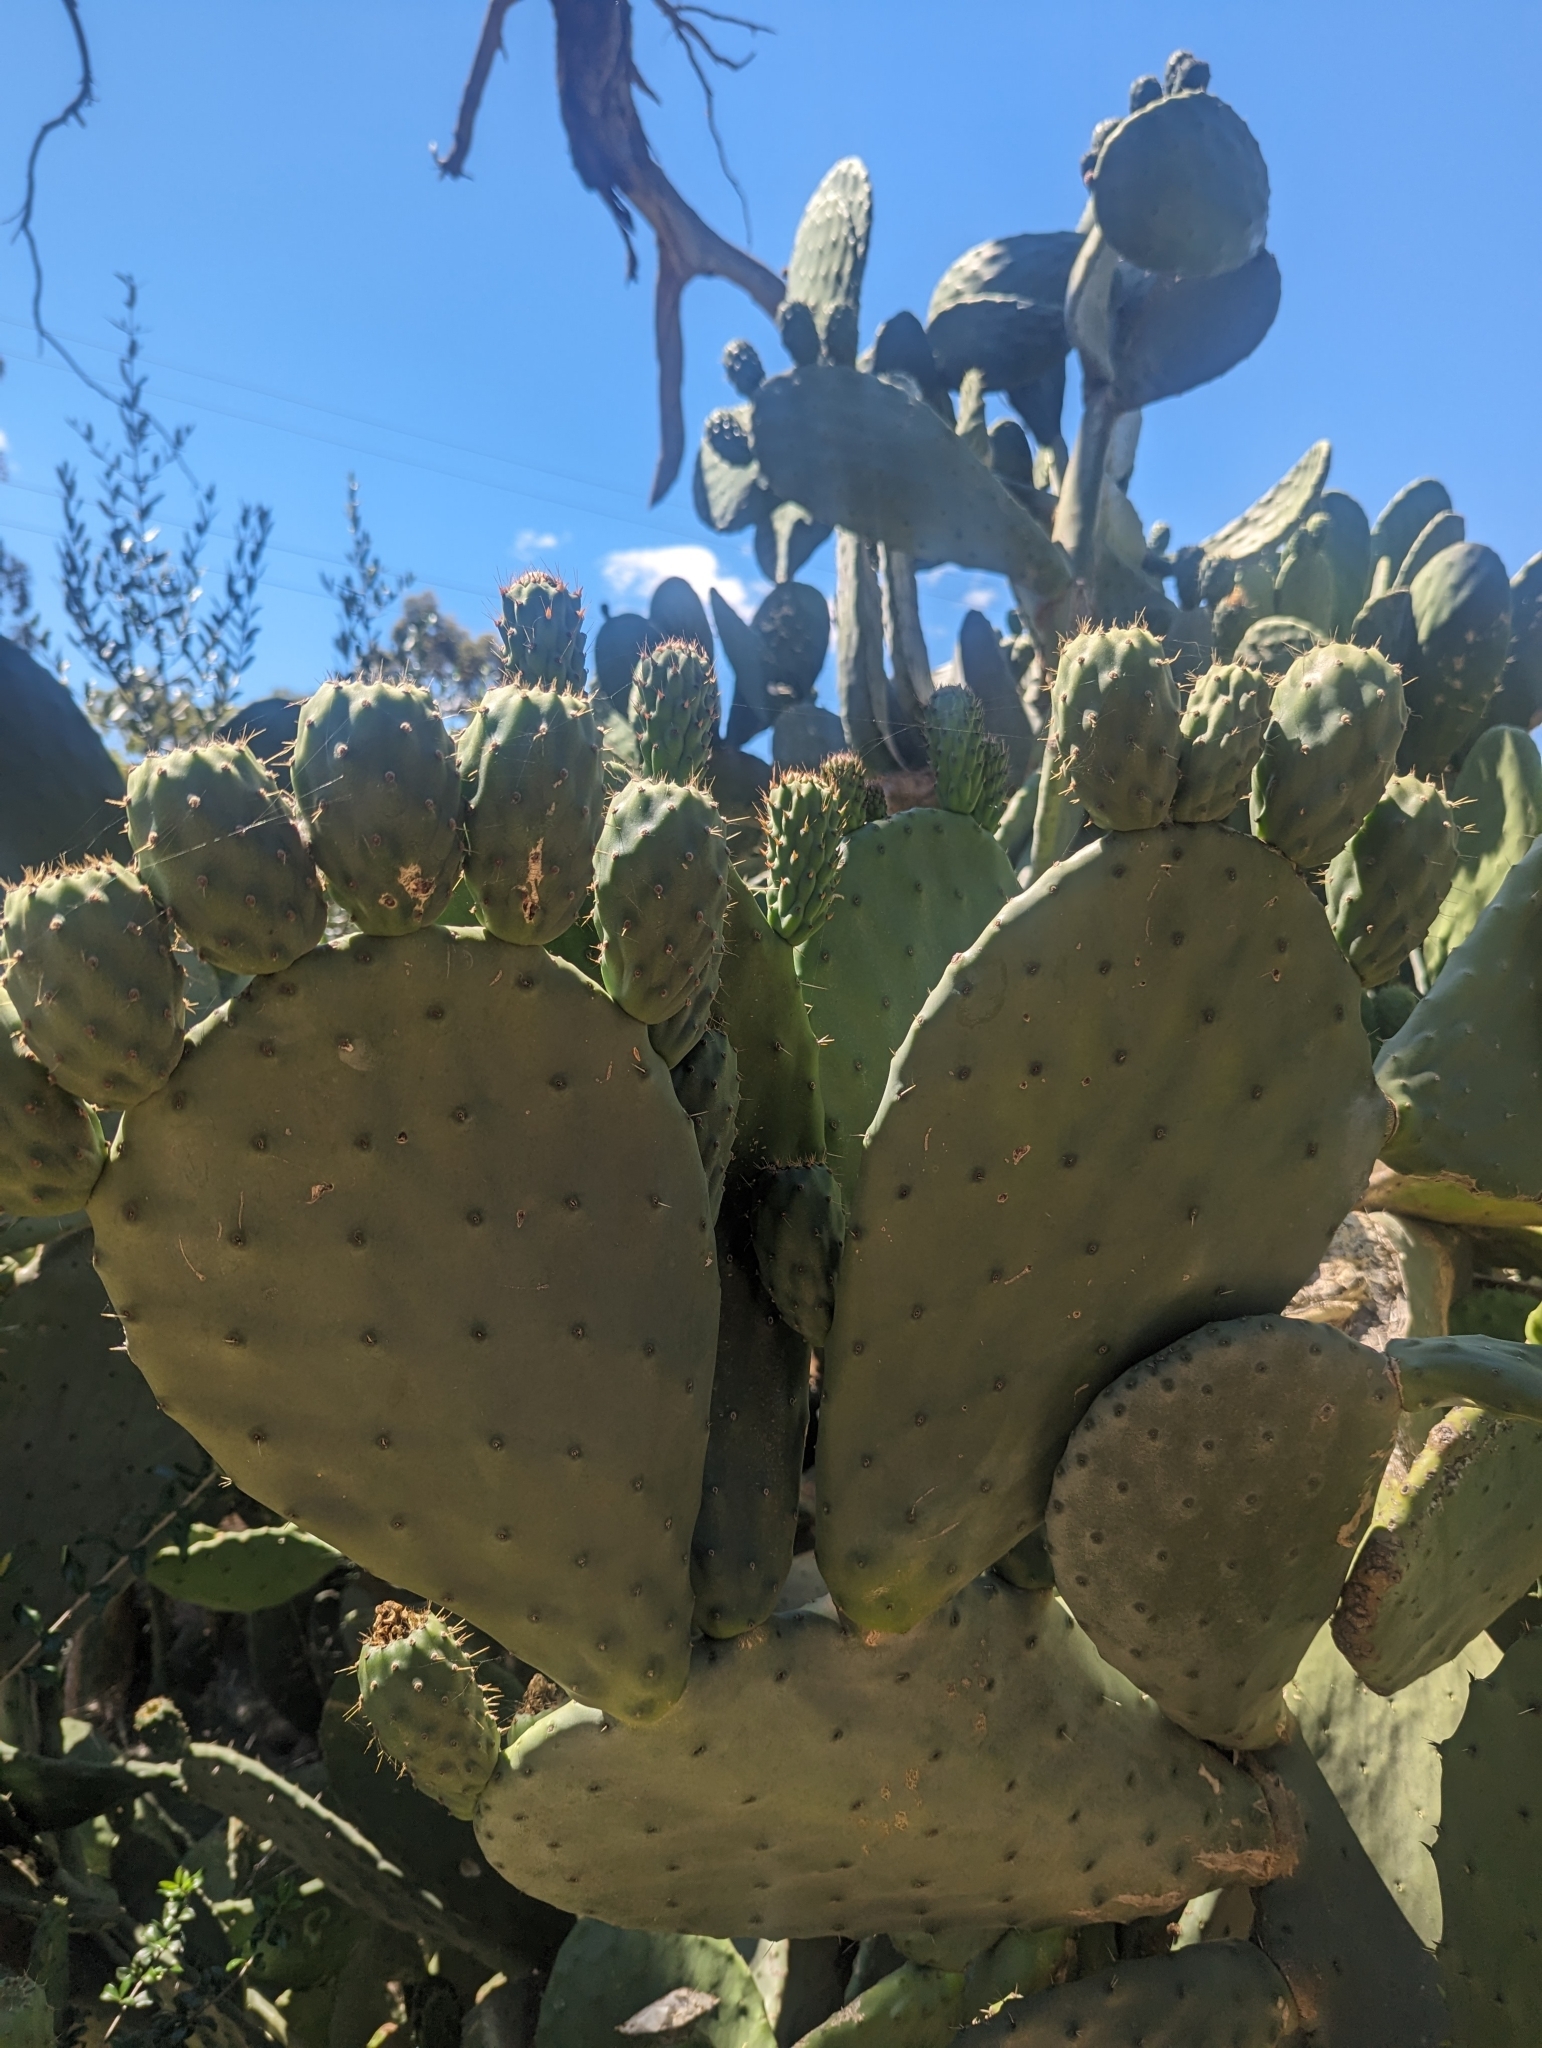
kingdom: Plantae
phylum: Tracheophyta
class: Magnoliopsida
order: Caryophyllales
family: Cactaceae
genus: Opuntia
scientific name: Opuntia ficus-indica
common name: Barbary fig
